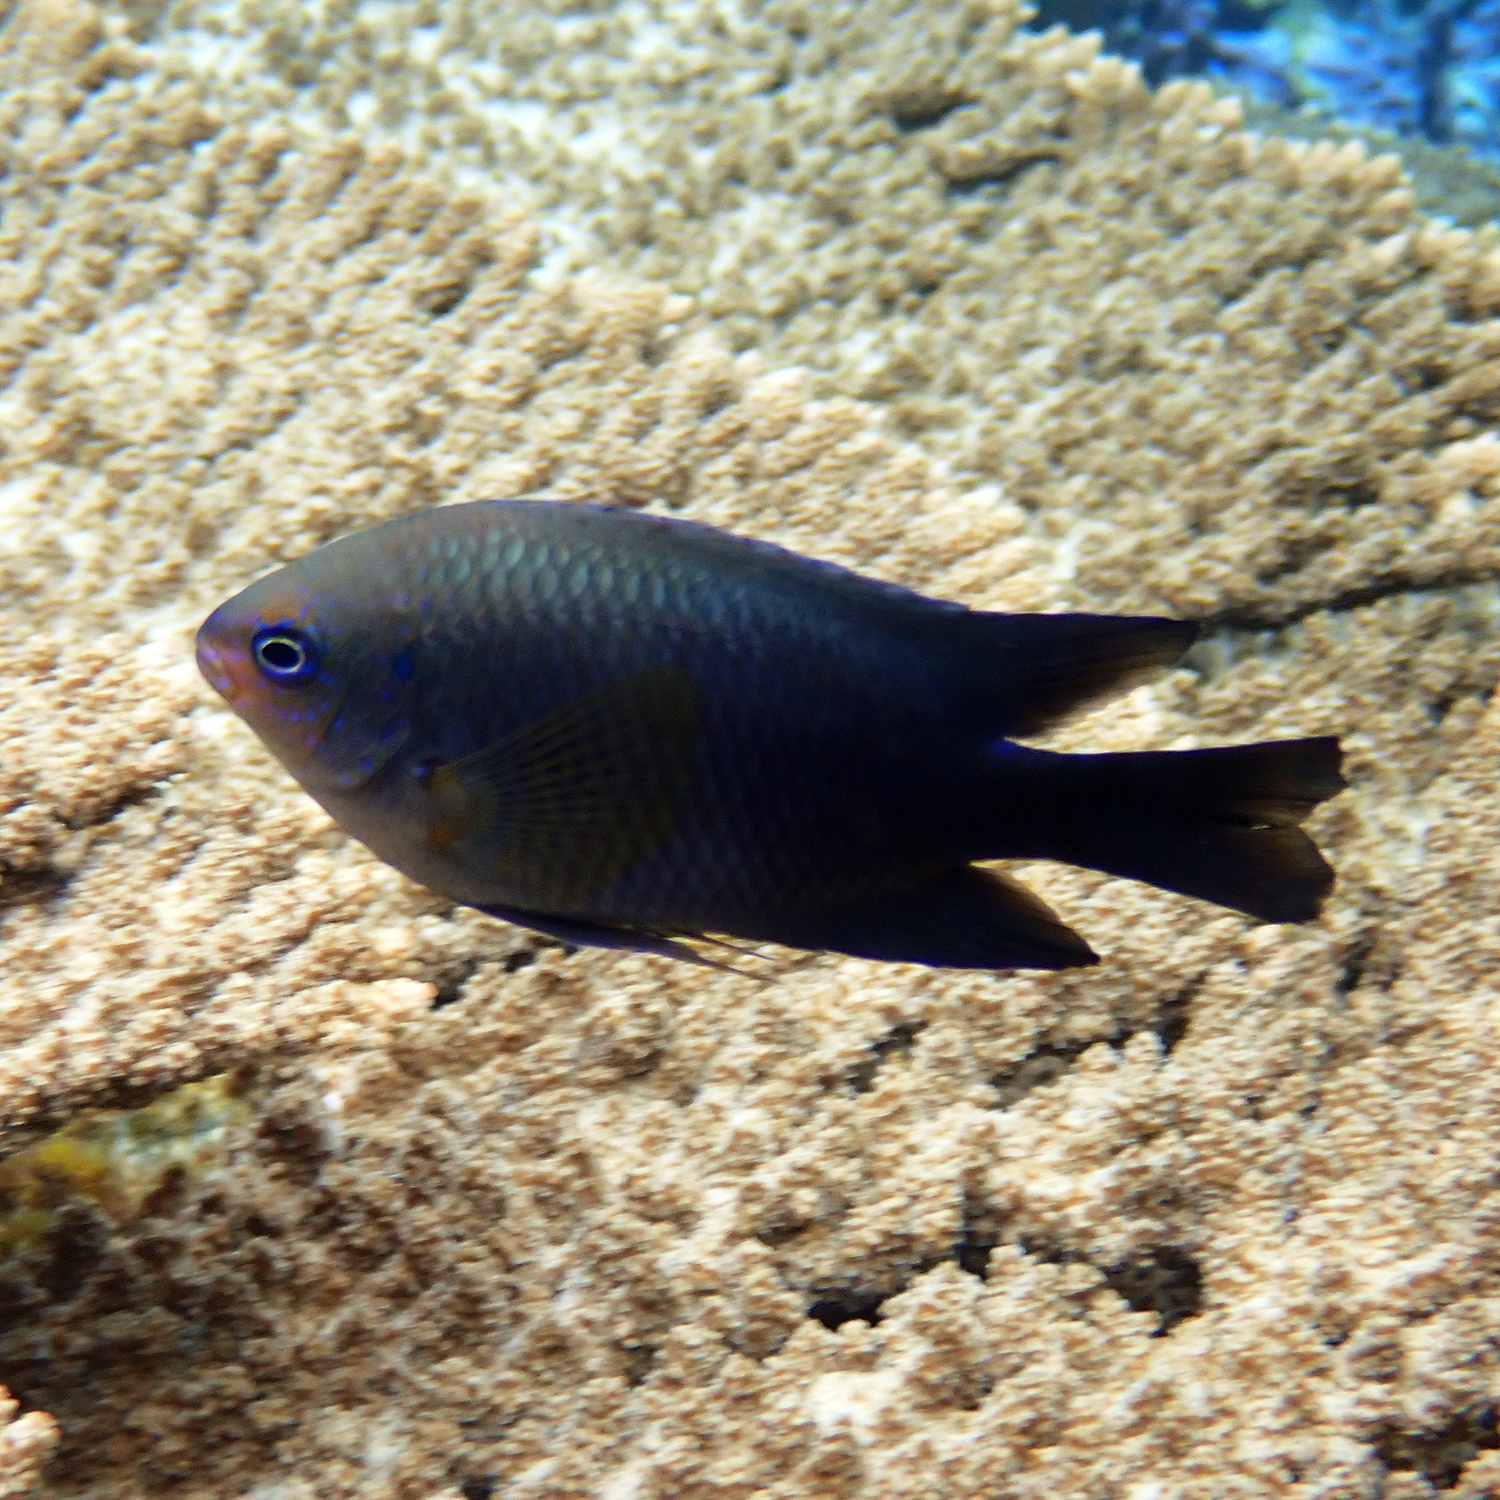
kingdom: Animalia
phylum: Chordata
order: Perciformes
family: Pomacentridae
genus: Neoglyphidodon
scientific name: Neoglyphidodon polyacanthus
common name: Multi-spined damsel
